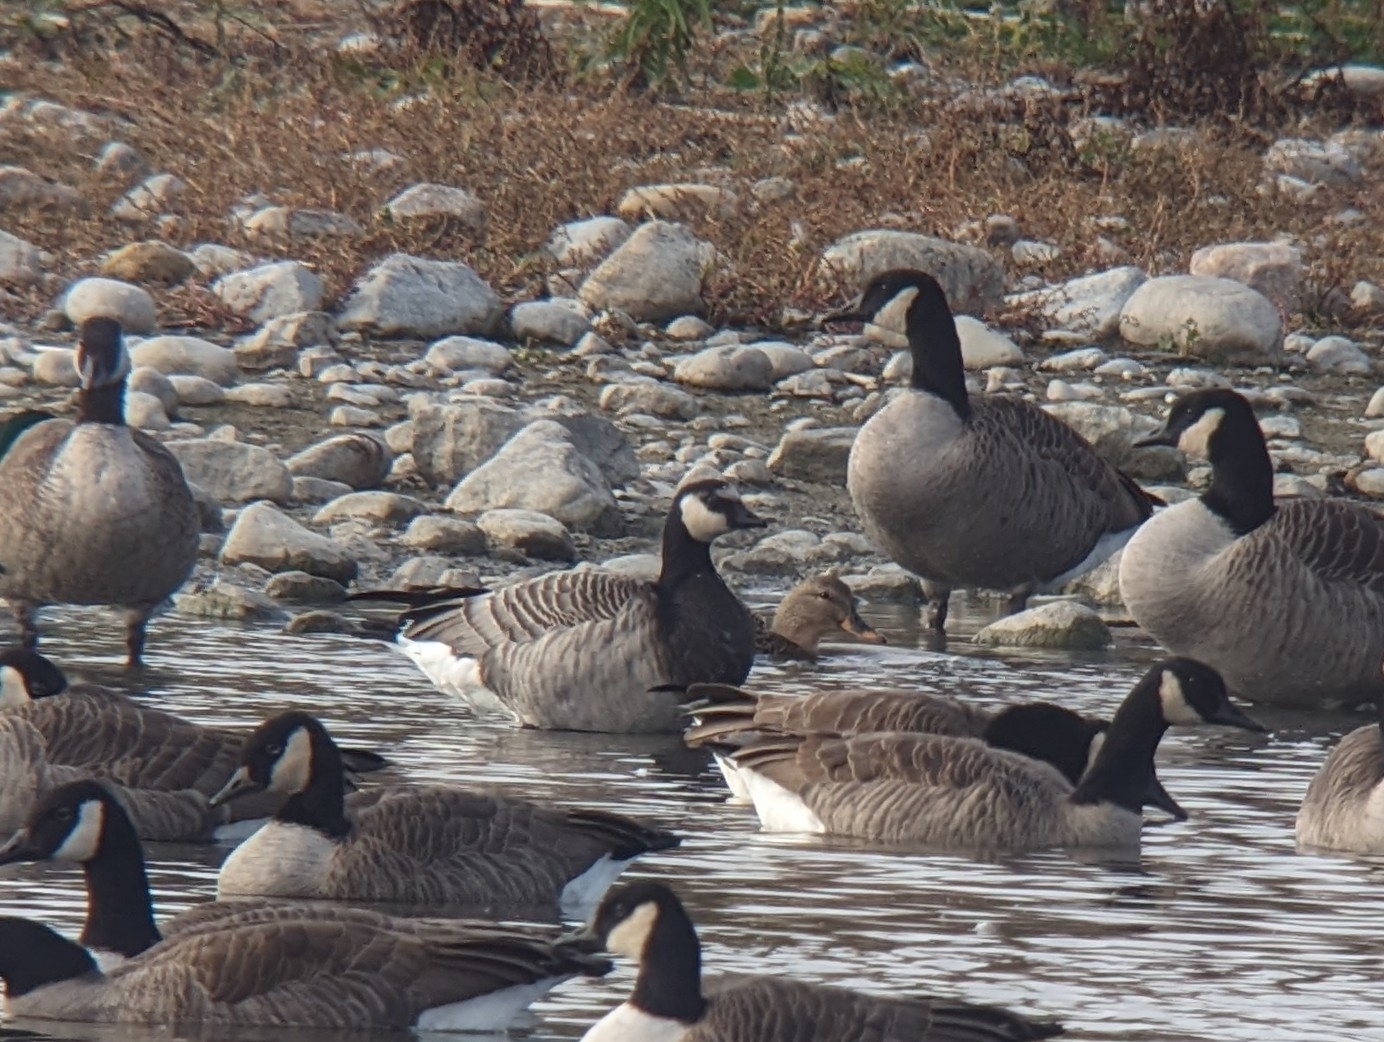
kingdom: Animalia
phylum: Chordata
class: Aves
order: Anseriformes
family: Anatidae
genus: Branta
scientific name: Branta
